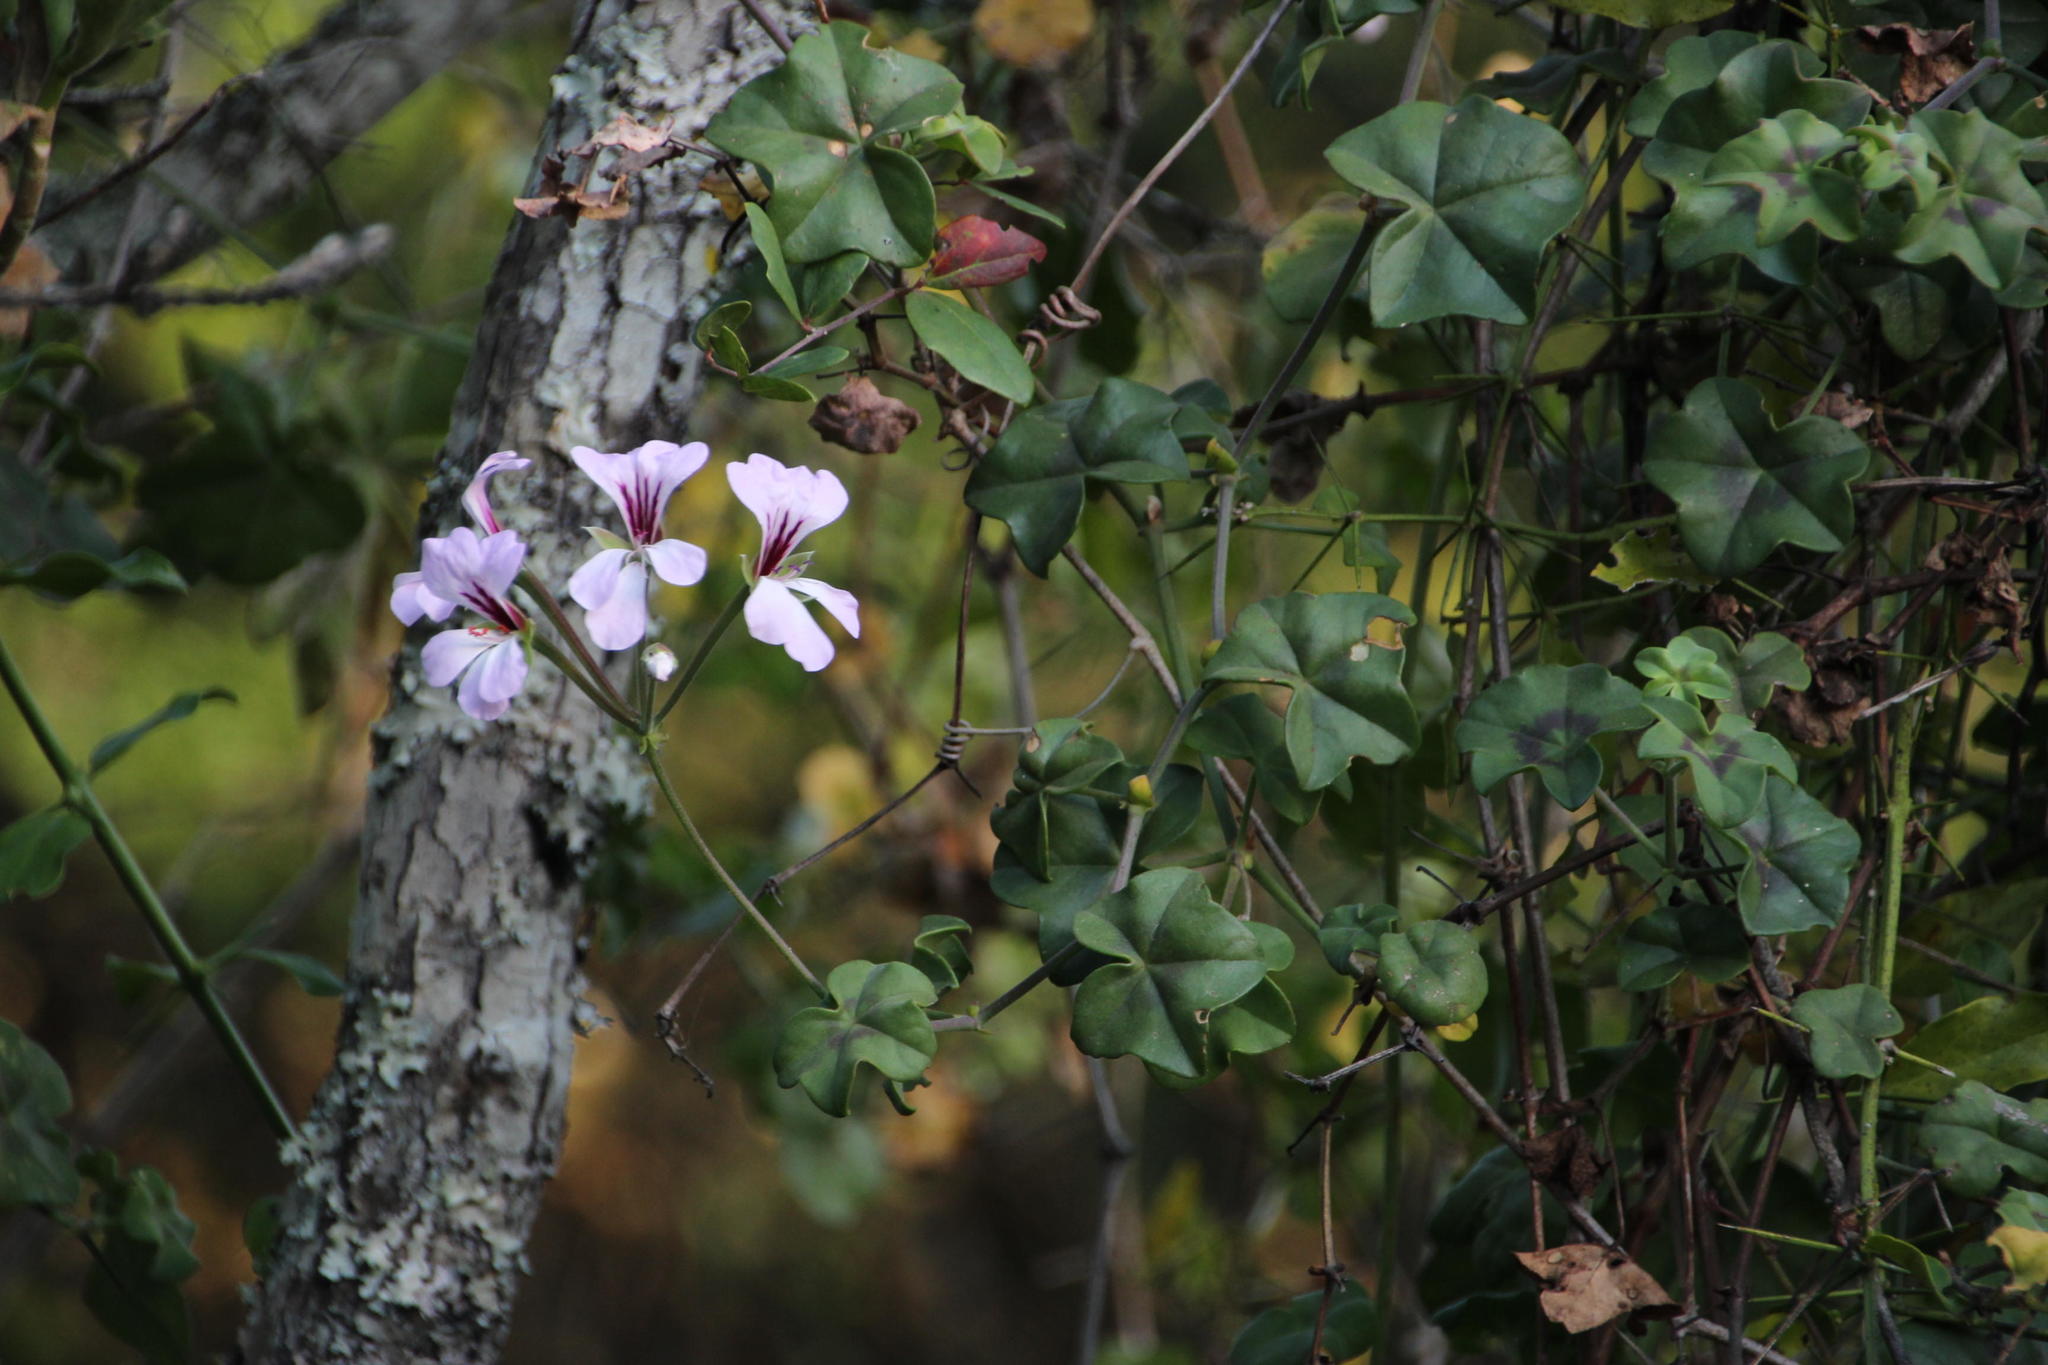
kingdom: Plantae
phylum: Tracheophyta
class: Magnoliopsida
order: Geraniales
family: Geraniaceae
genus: Pelargonium
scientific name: Pelargonium peltatum
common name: Ivyleaf geranium
